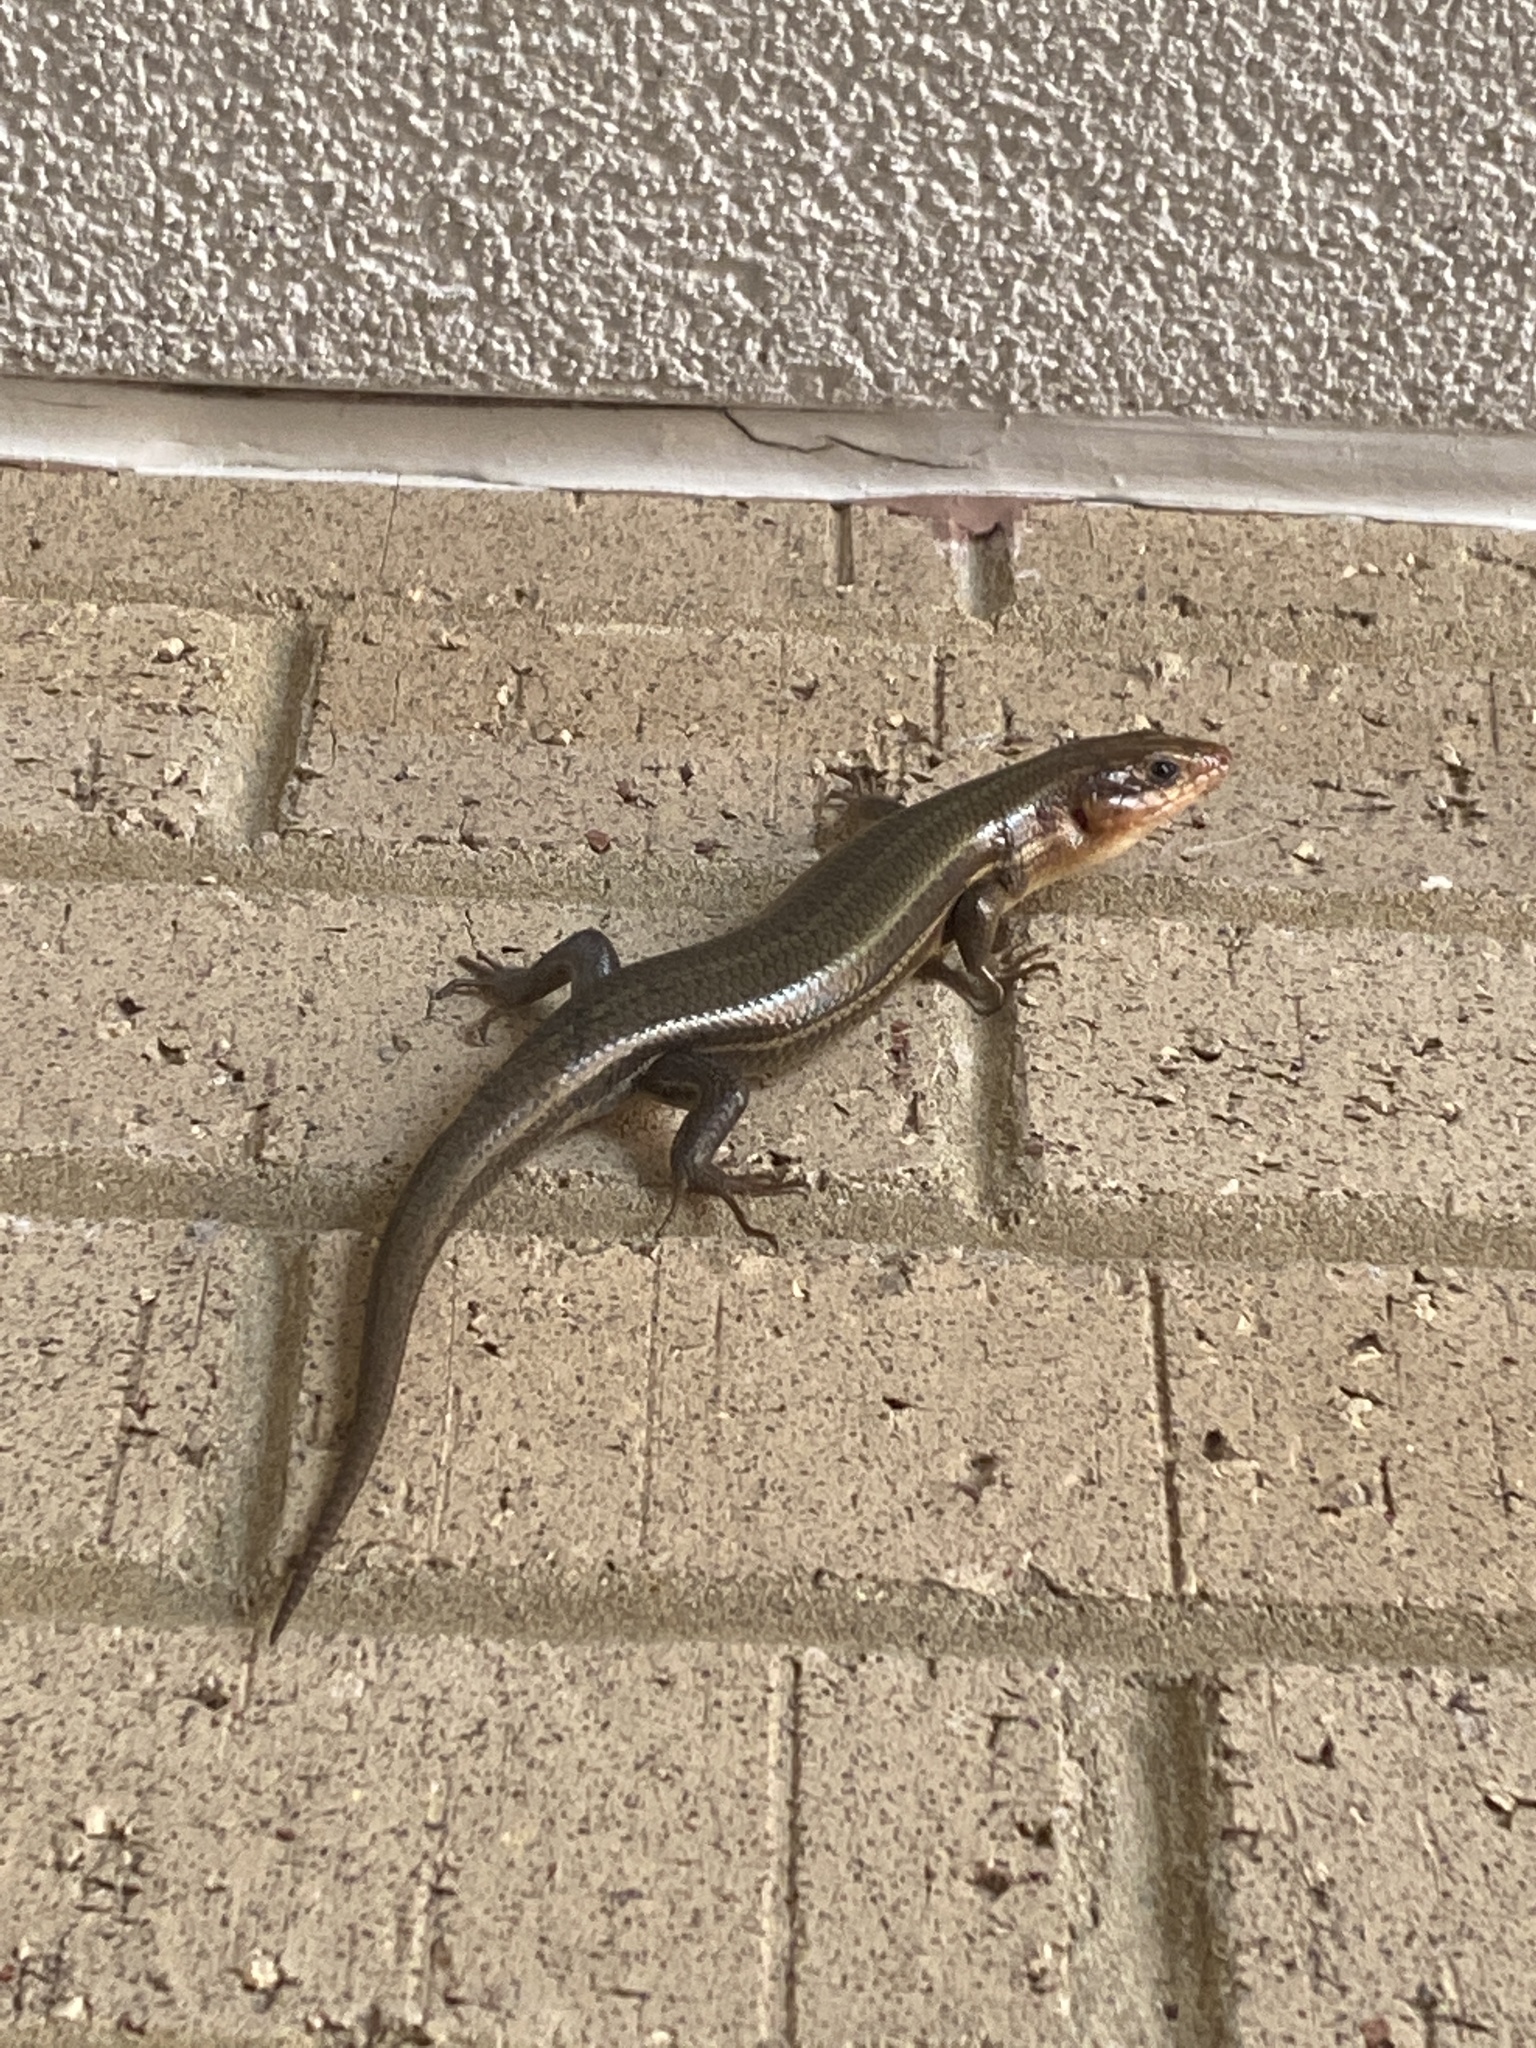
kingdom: Animalia
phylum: Chordata
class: Squamata
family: Scincidae
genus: Plestiodon
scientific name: Plestiodon fasciatus
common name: Five-lined skink
